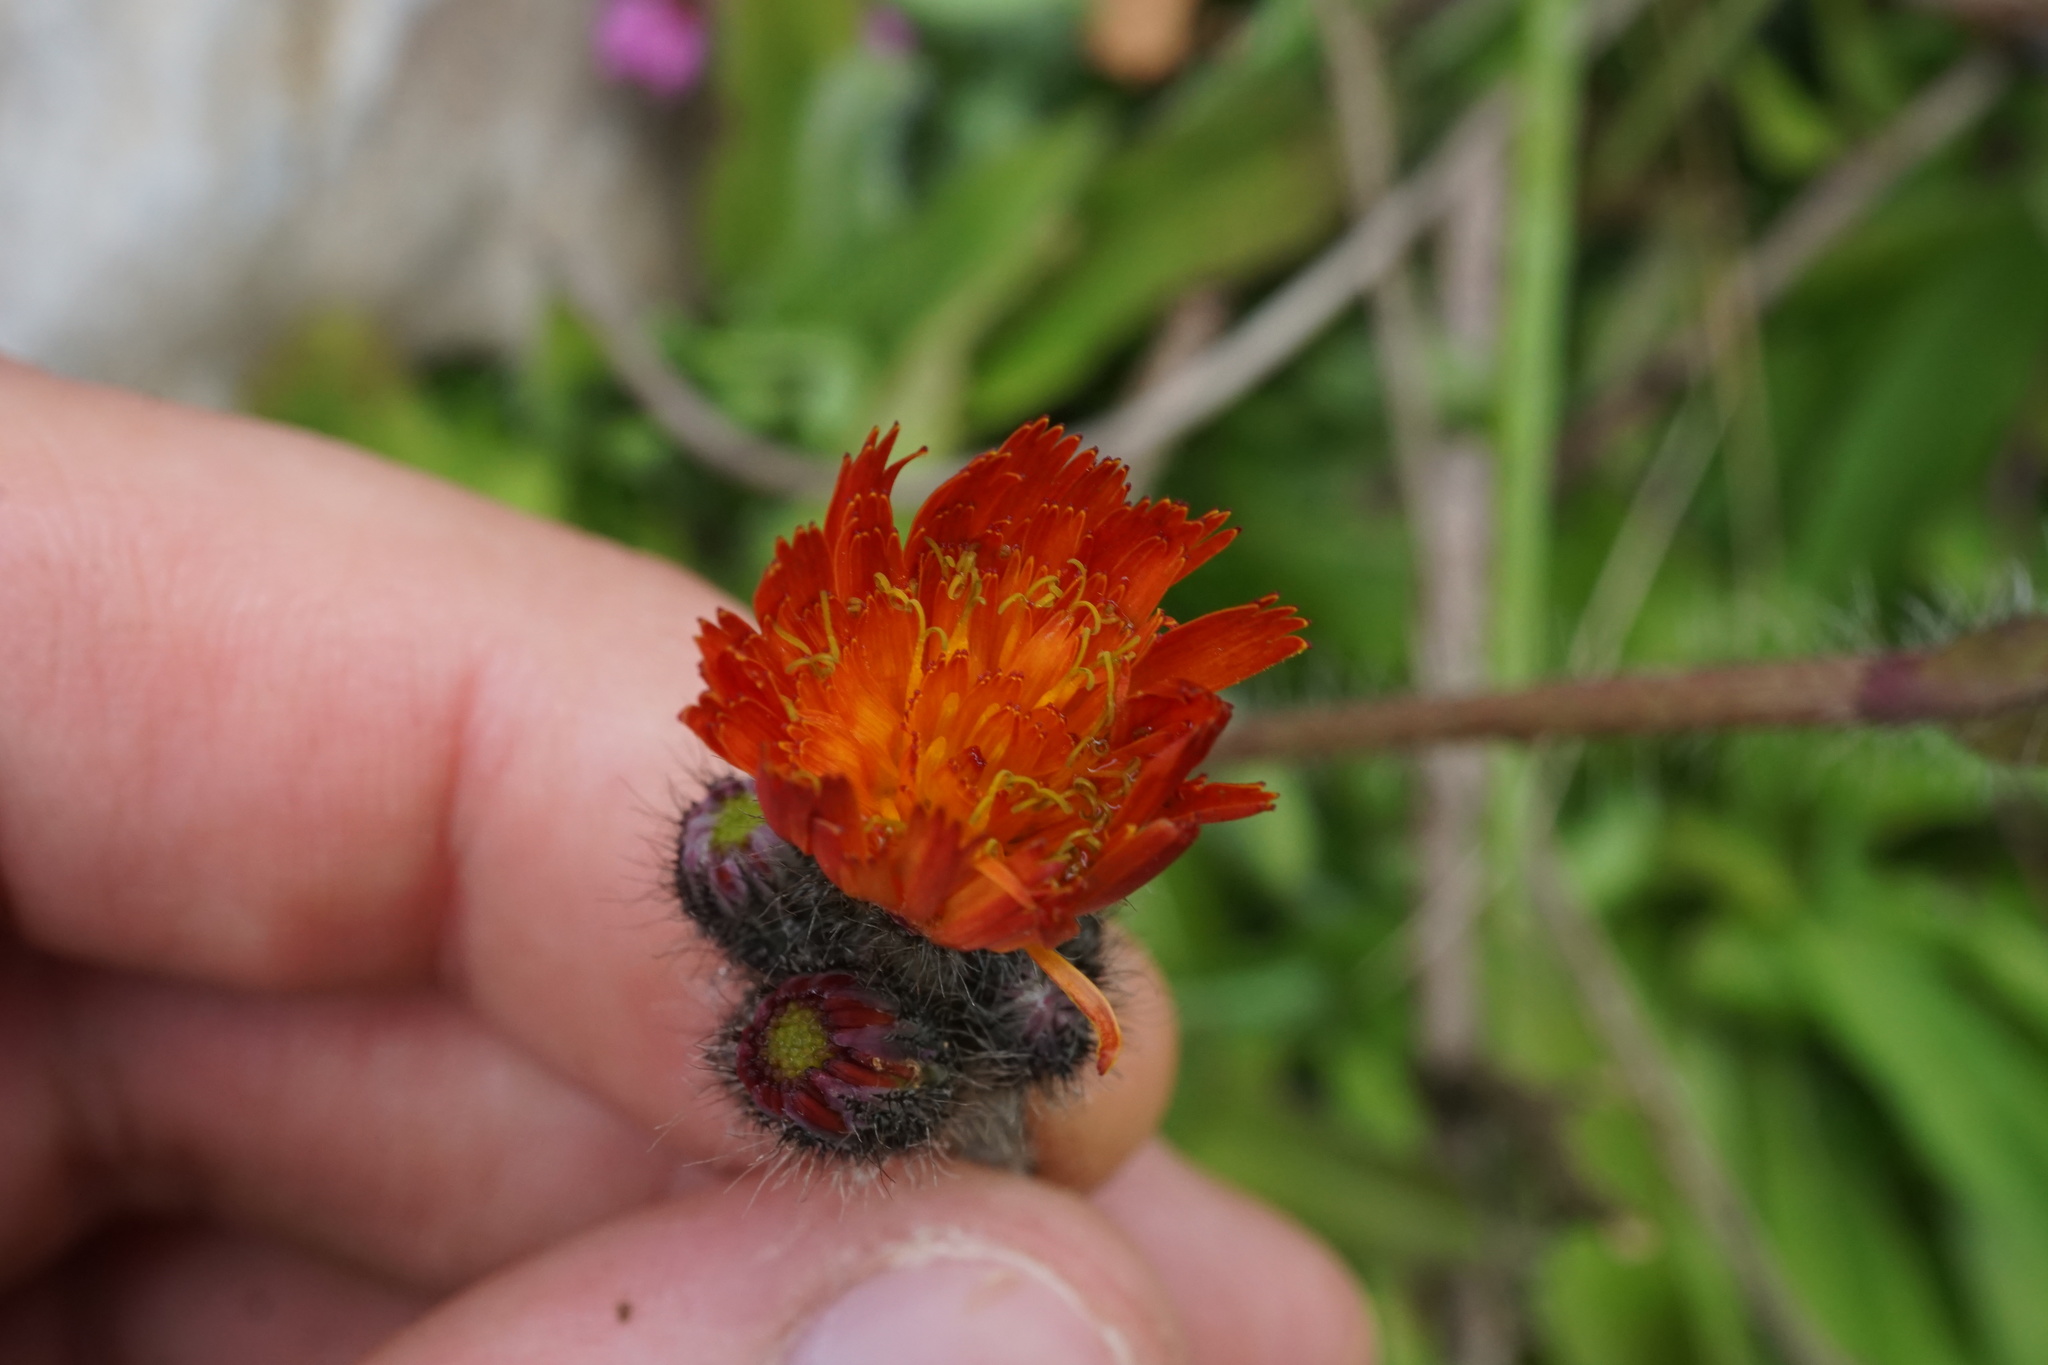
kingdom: Plantae
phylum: Tracheophyta
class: Magnoliopsida
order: Asterales
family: Asteraceae
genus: Pilosella
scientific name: Pilosella aurantiaca
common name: Fox-and-cubs
